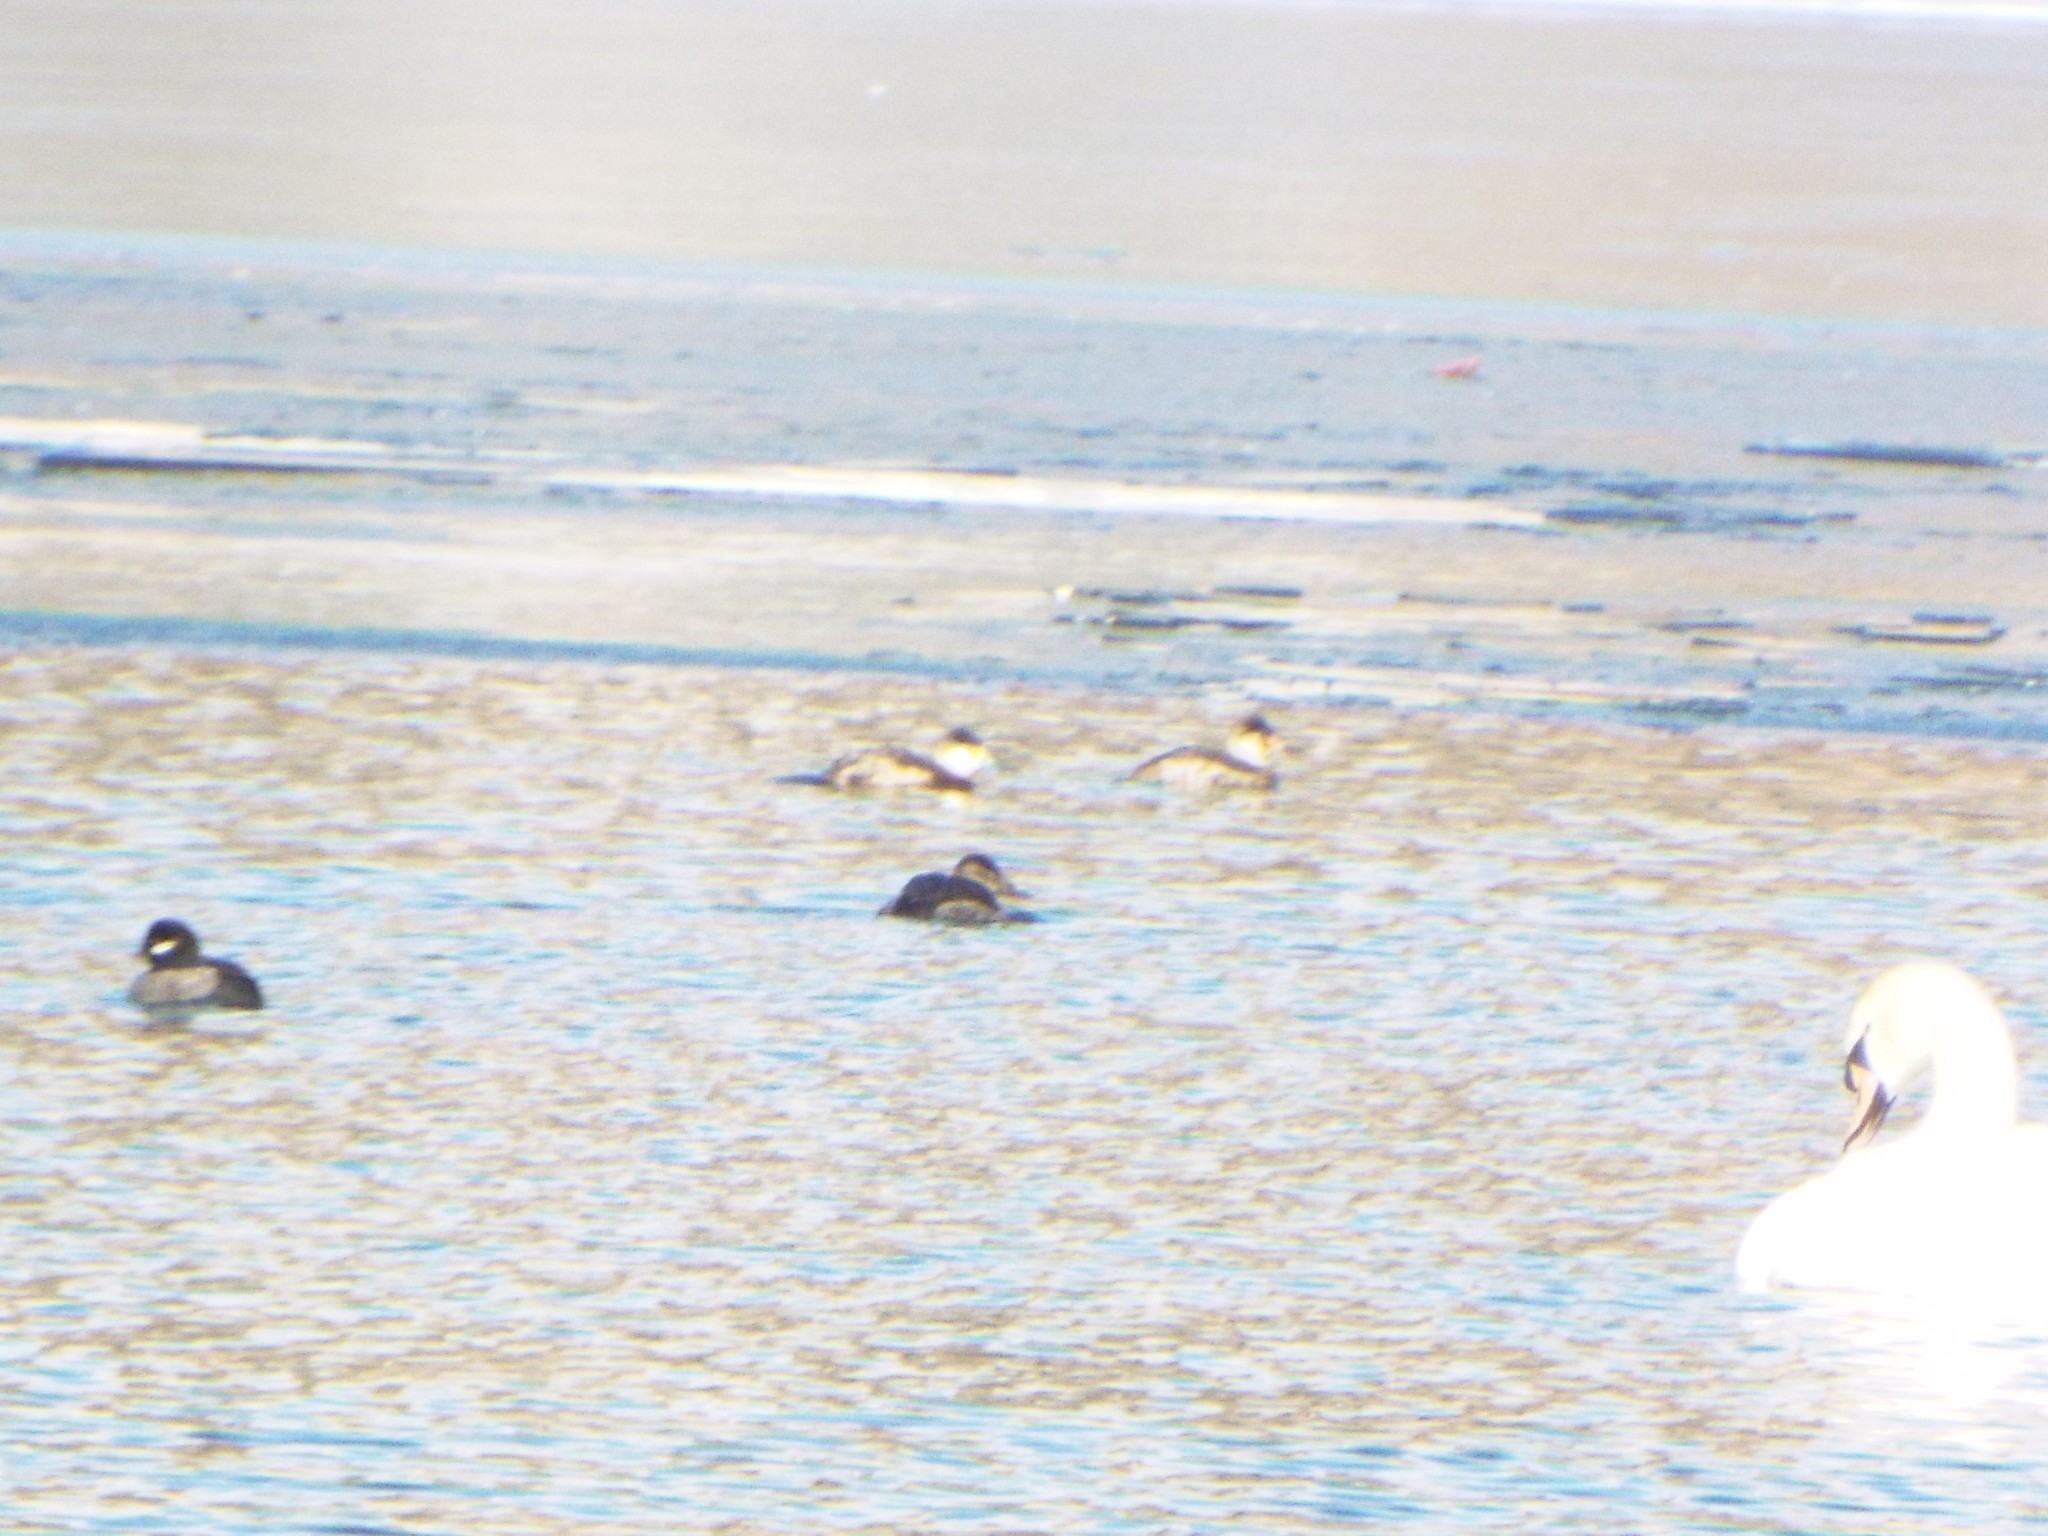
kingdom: Animalia
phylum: Chordata
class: Aves
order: Anseriformes
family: Anatidae
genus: Oxyura
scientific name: Oxyura jamaicensis
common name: Ruddy duck
